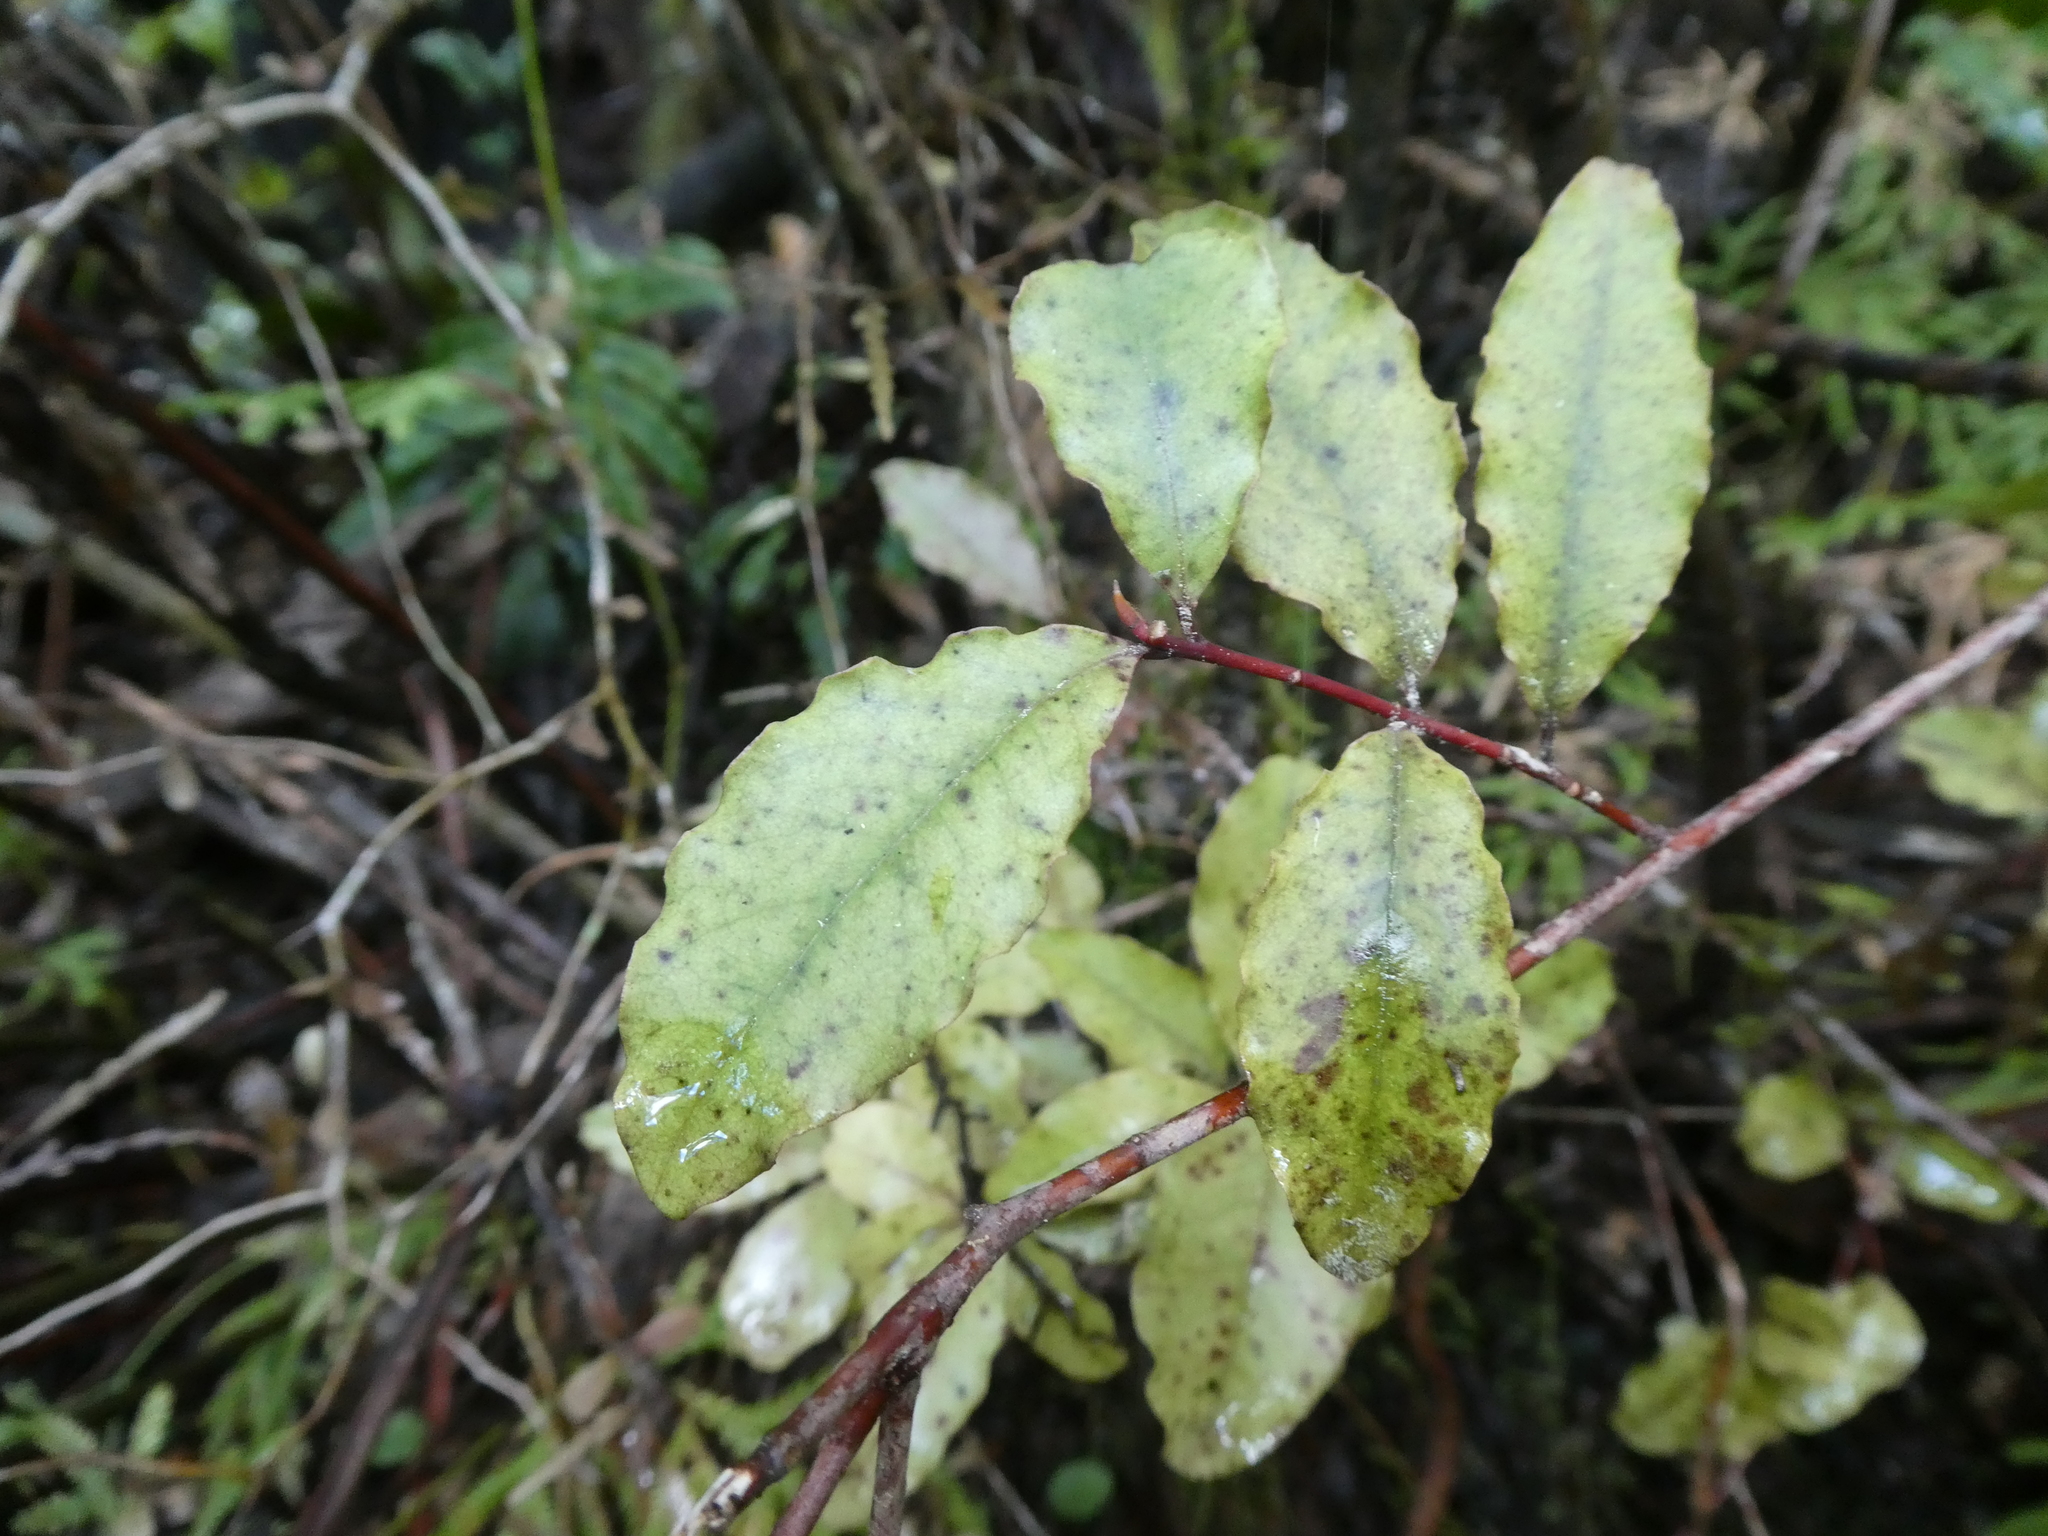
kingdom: Plantae
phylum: Tracheophyta
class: Magnoliopsida
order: Ericales
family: Primulaceae
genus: Myrsine
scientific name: Myrsine australis
